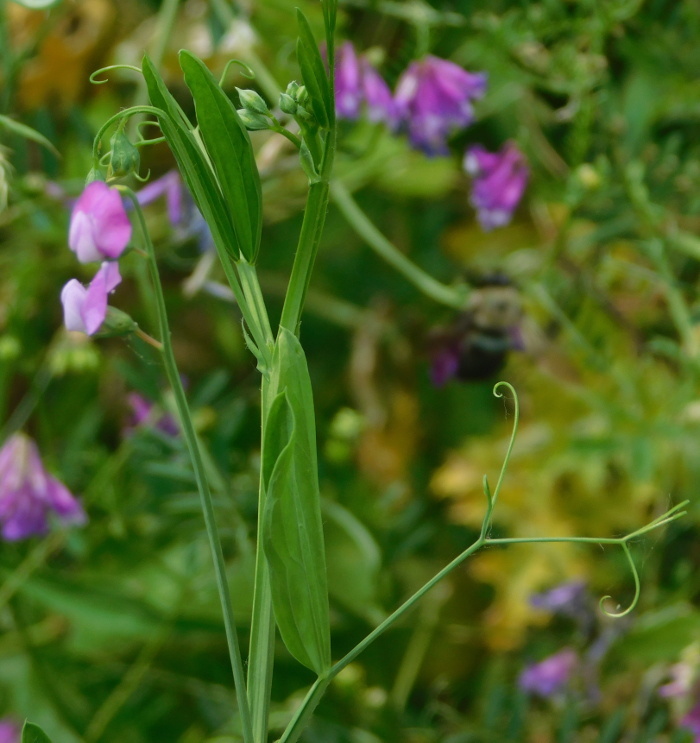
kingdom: Plantae
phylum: Tracheophyta
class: Magnoliopsida
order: Fabales
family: Fabaceae
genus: Lathyrus
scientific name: Lathyrus hirsutus
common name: Hairy vetchling
